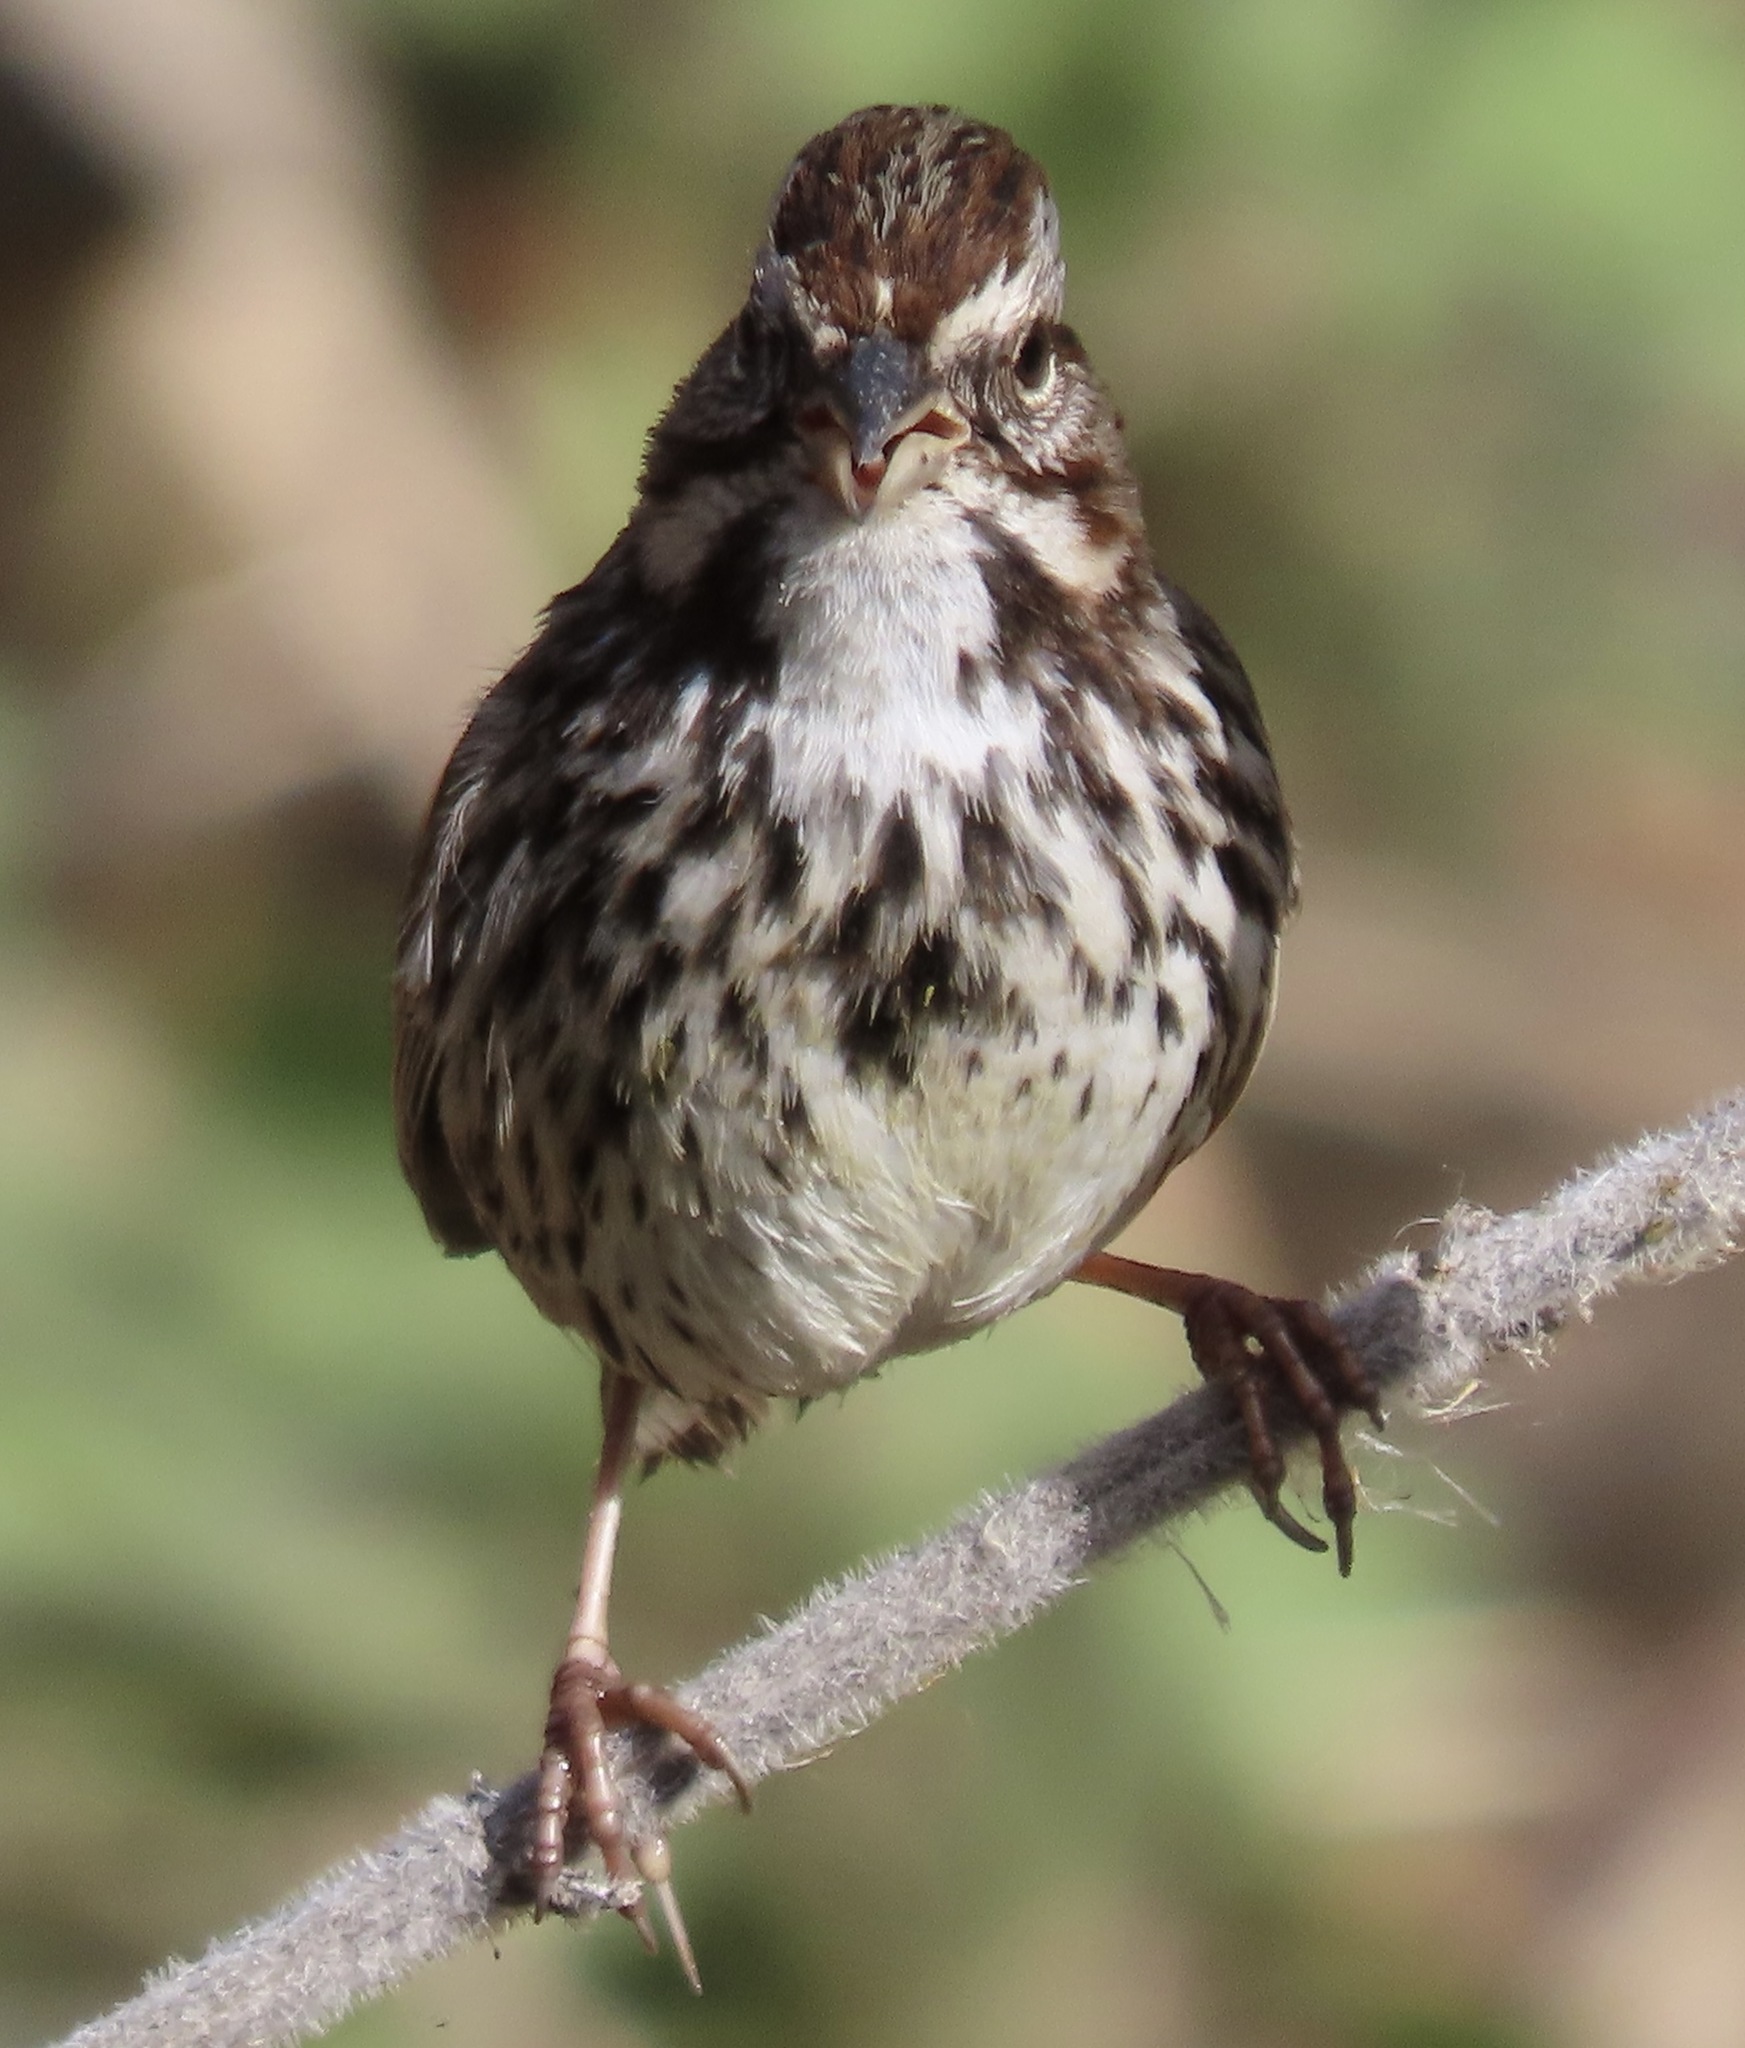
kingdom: Animalia
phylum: Chordata
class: Aves
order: Passeriformes
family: Passerellidae
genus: Melospiza
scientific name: Melospiza melodia
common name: Song sparrow
